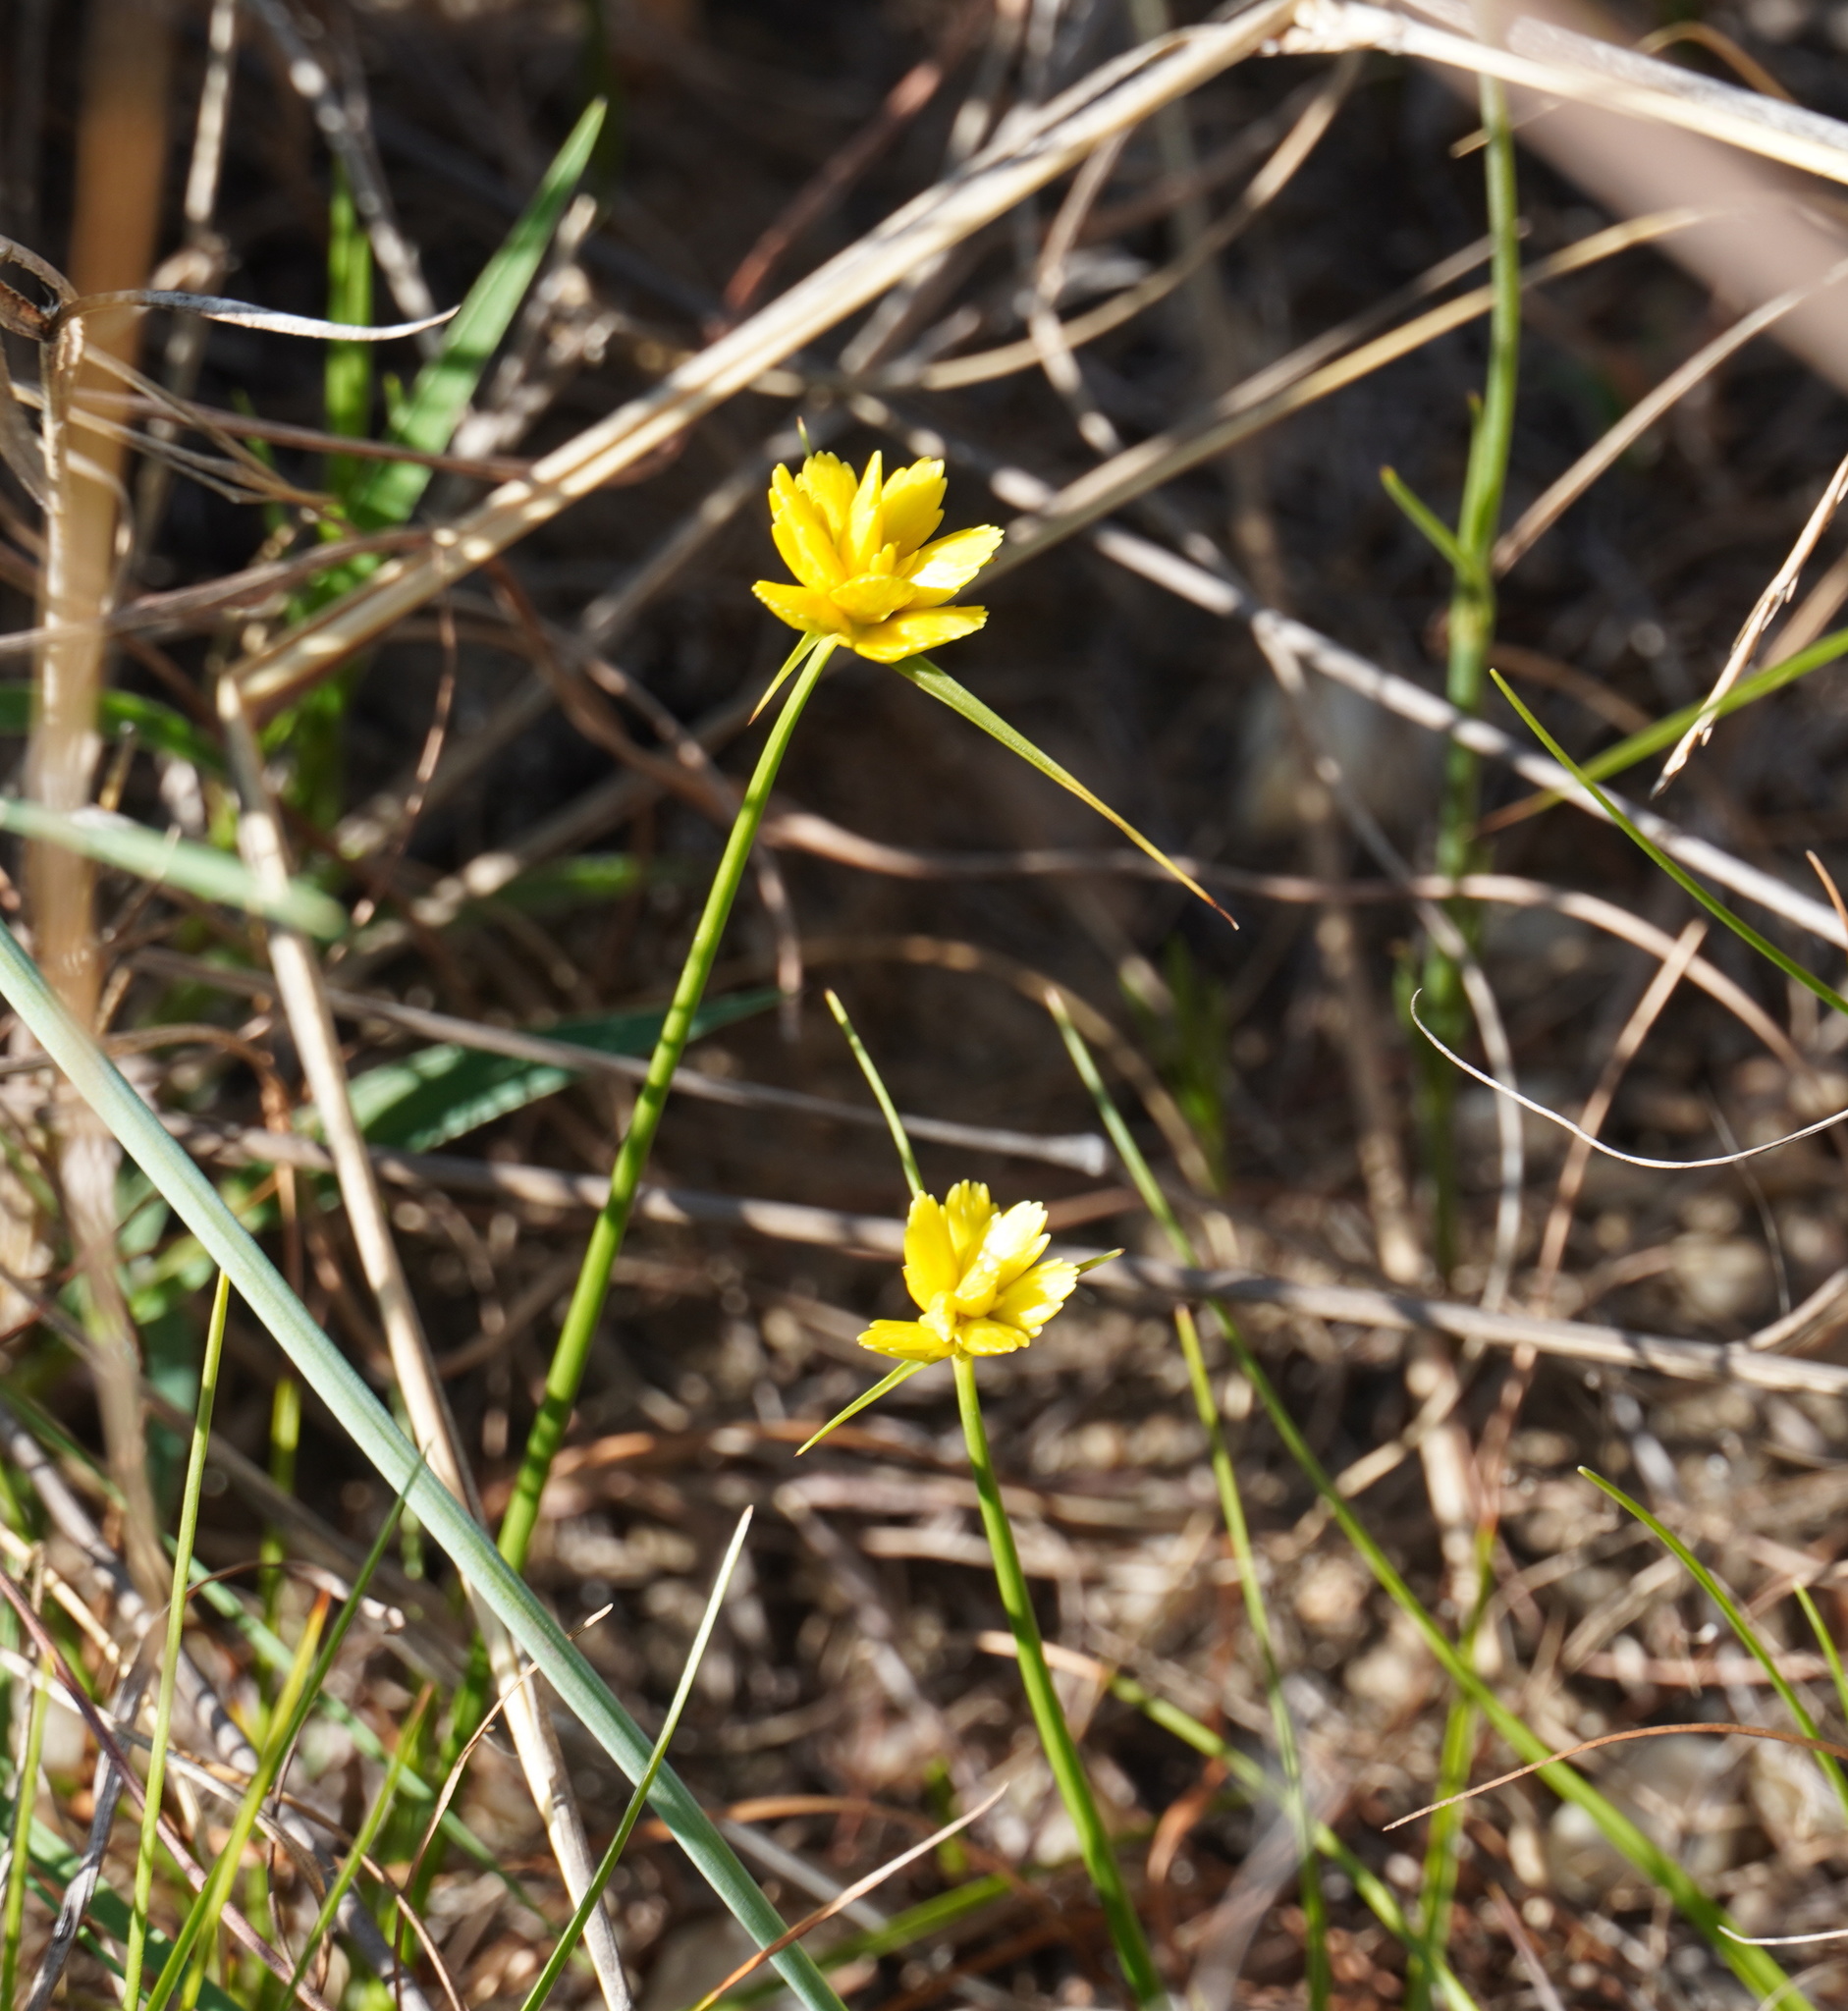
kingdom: Plantae
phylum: Tracheophyta
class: Liliopsida
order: Poales
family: Cyperaceae
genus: Cyperus
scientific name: Cyperus sphaerocephalus
